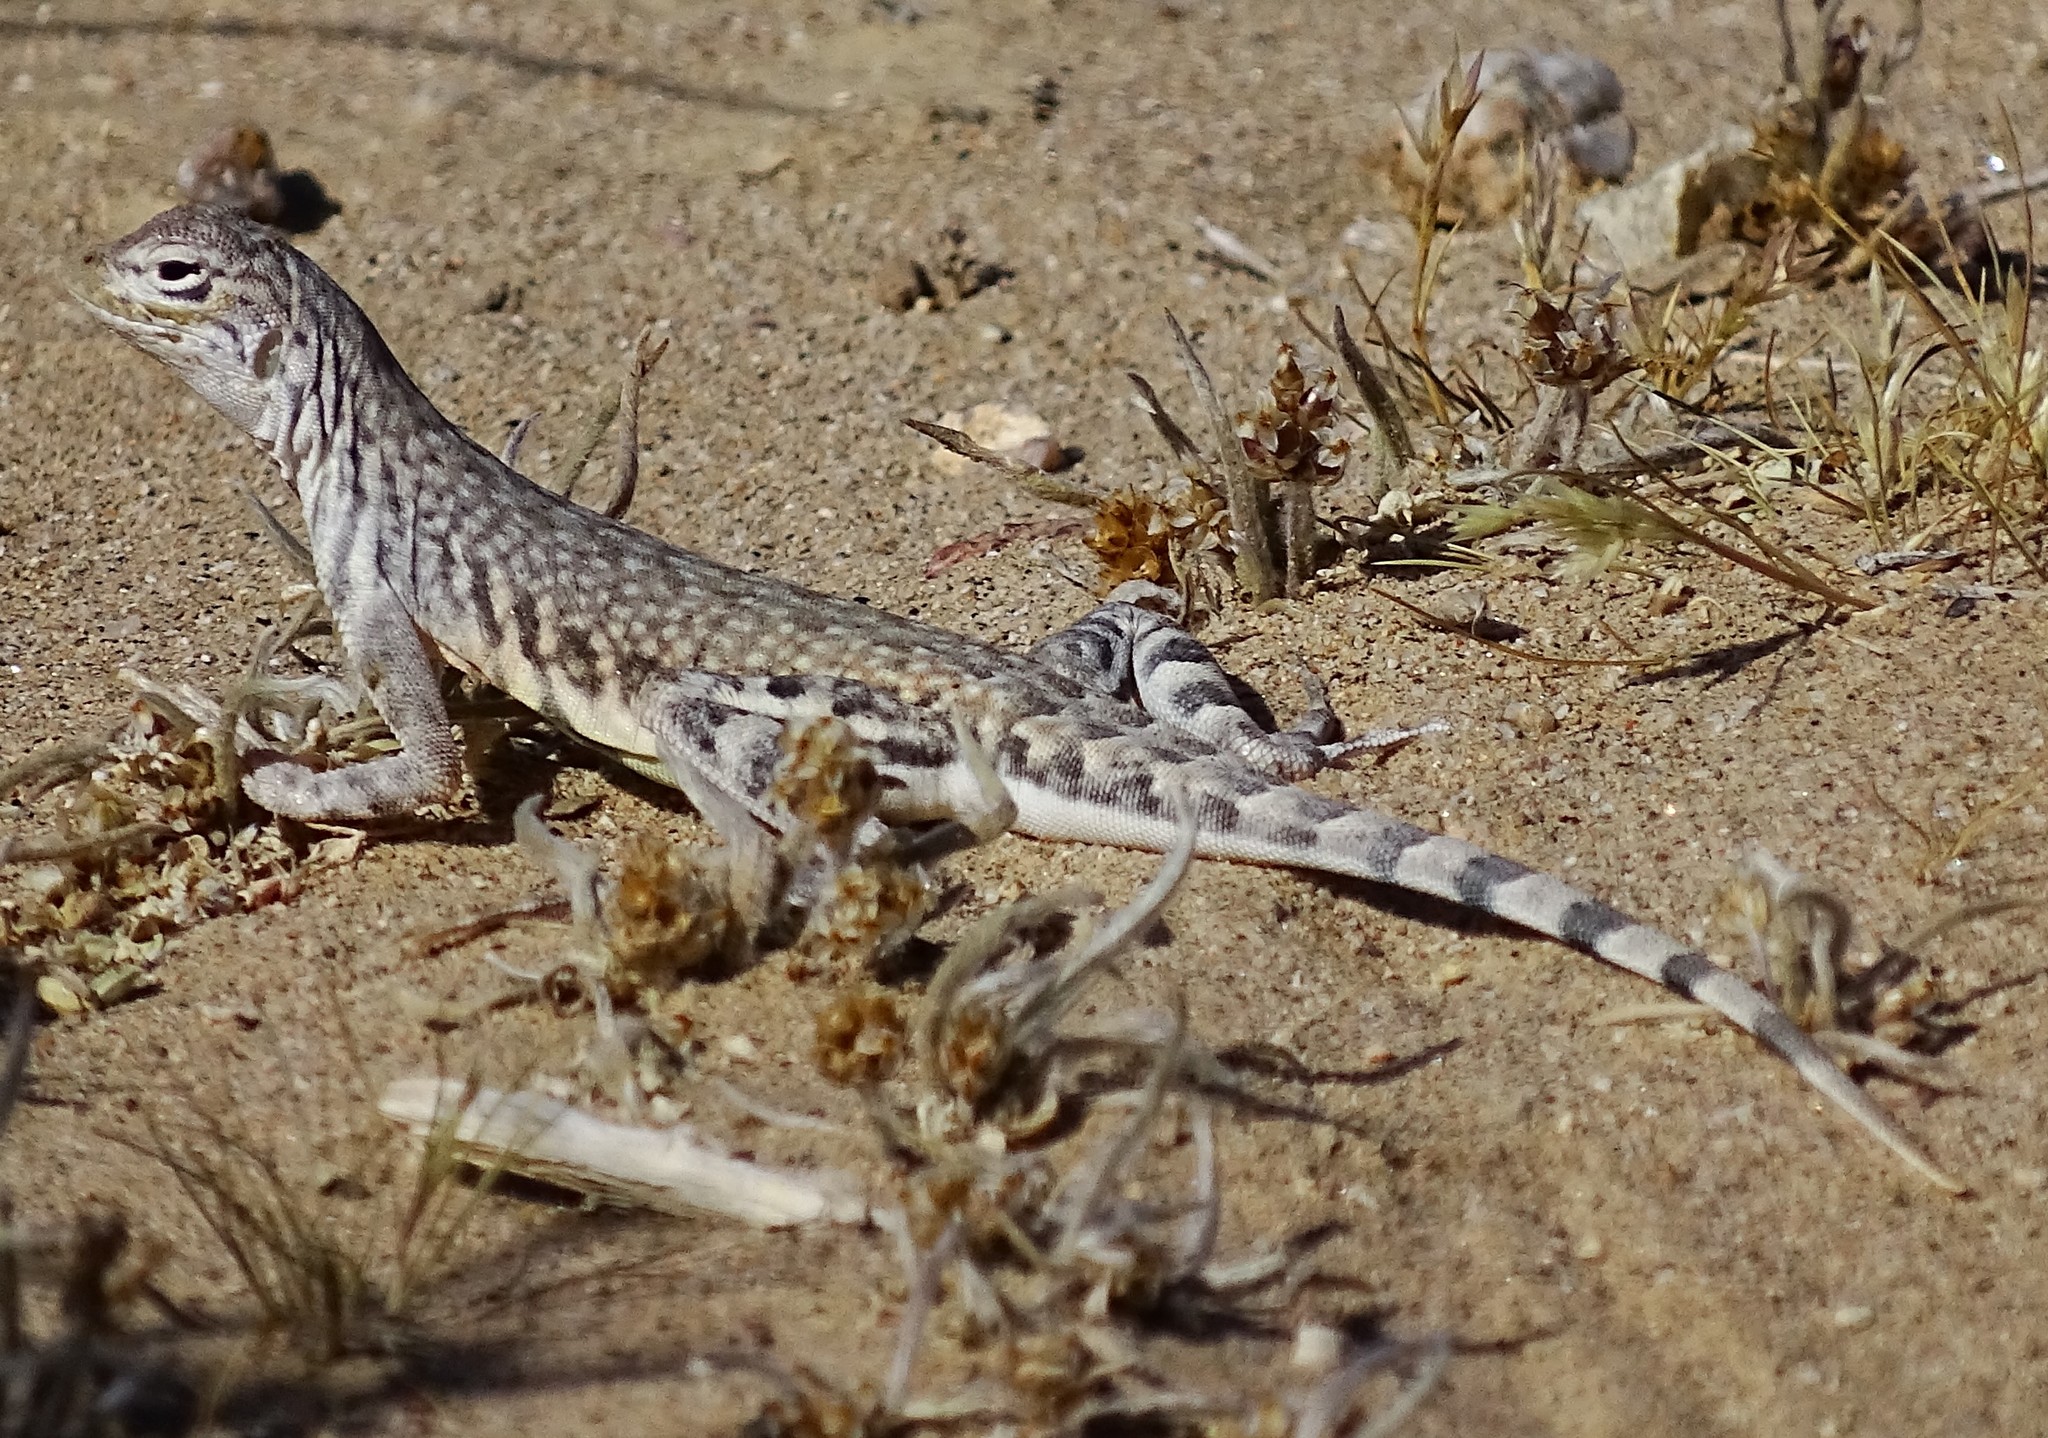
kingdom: Animalia
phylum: Chordata
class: Squamata
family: Phrynosomatidae
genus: Callisaurus
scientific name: Callisaurus draconoides
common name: Zebra-tailed lizard
